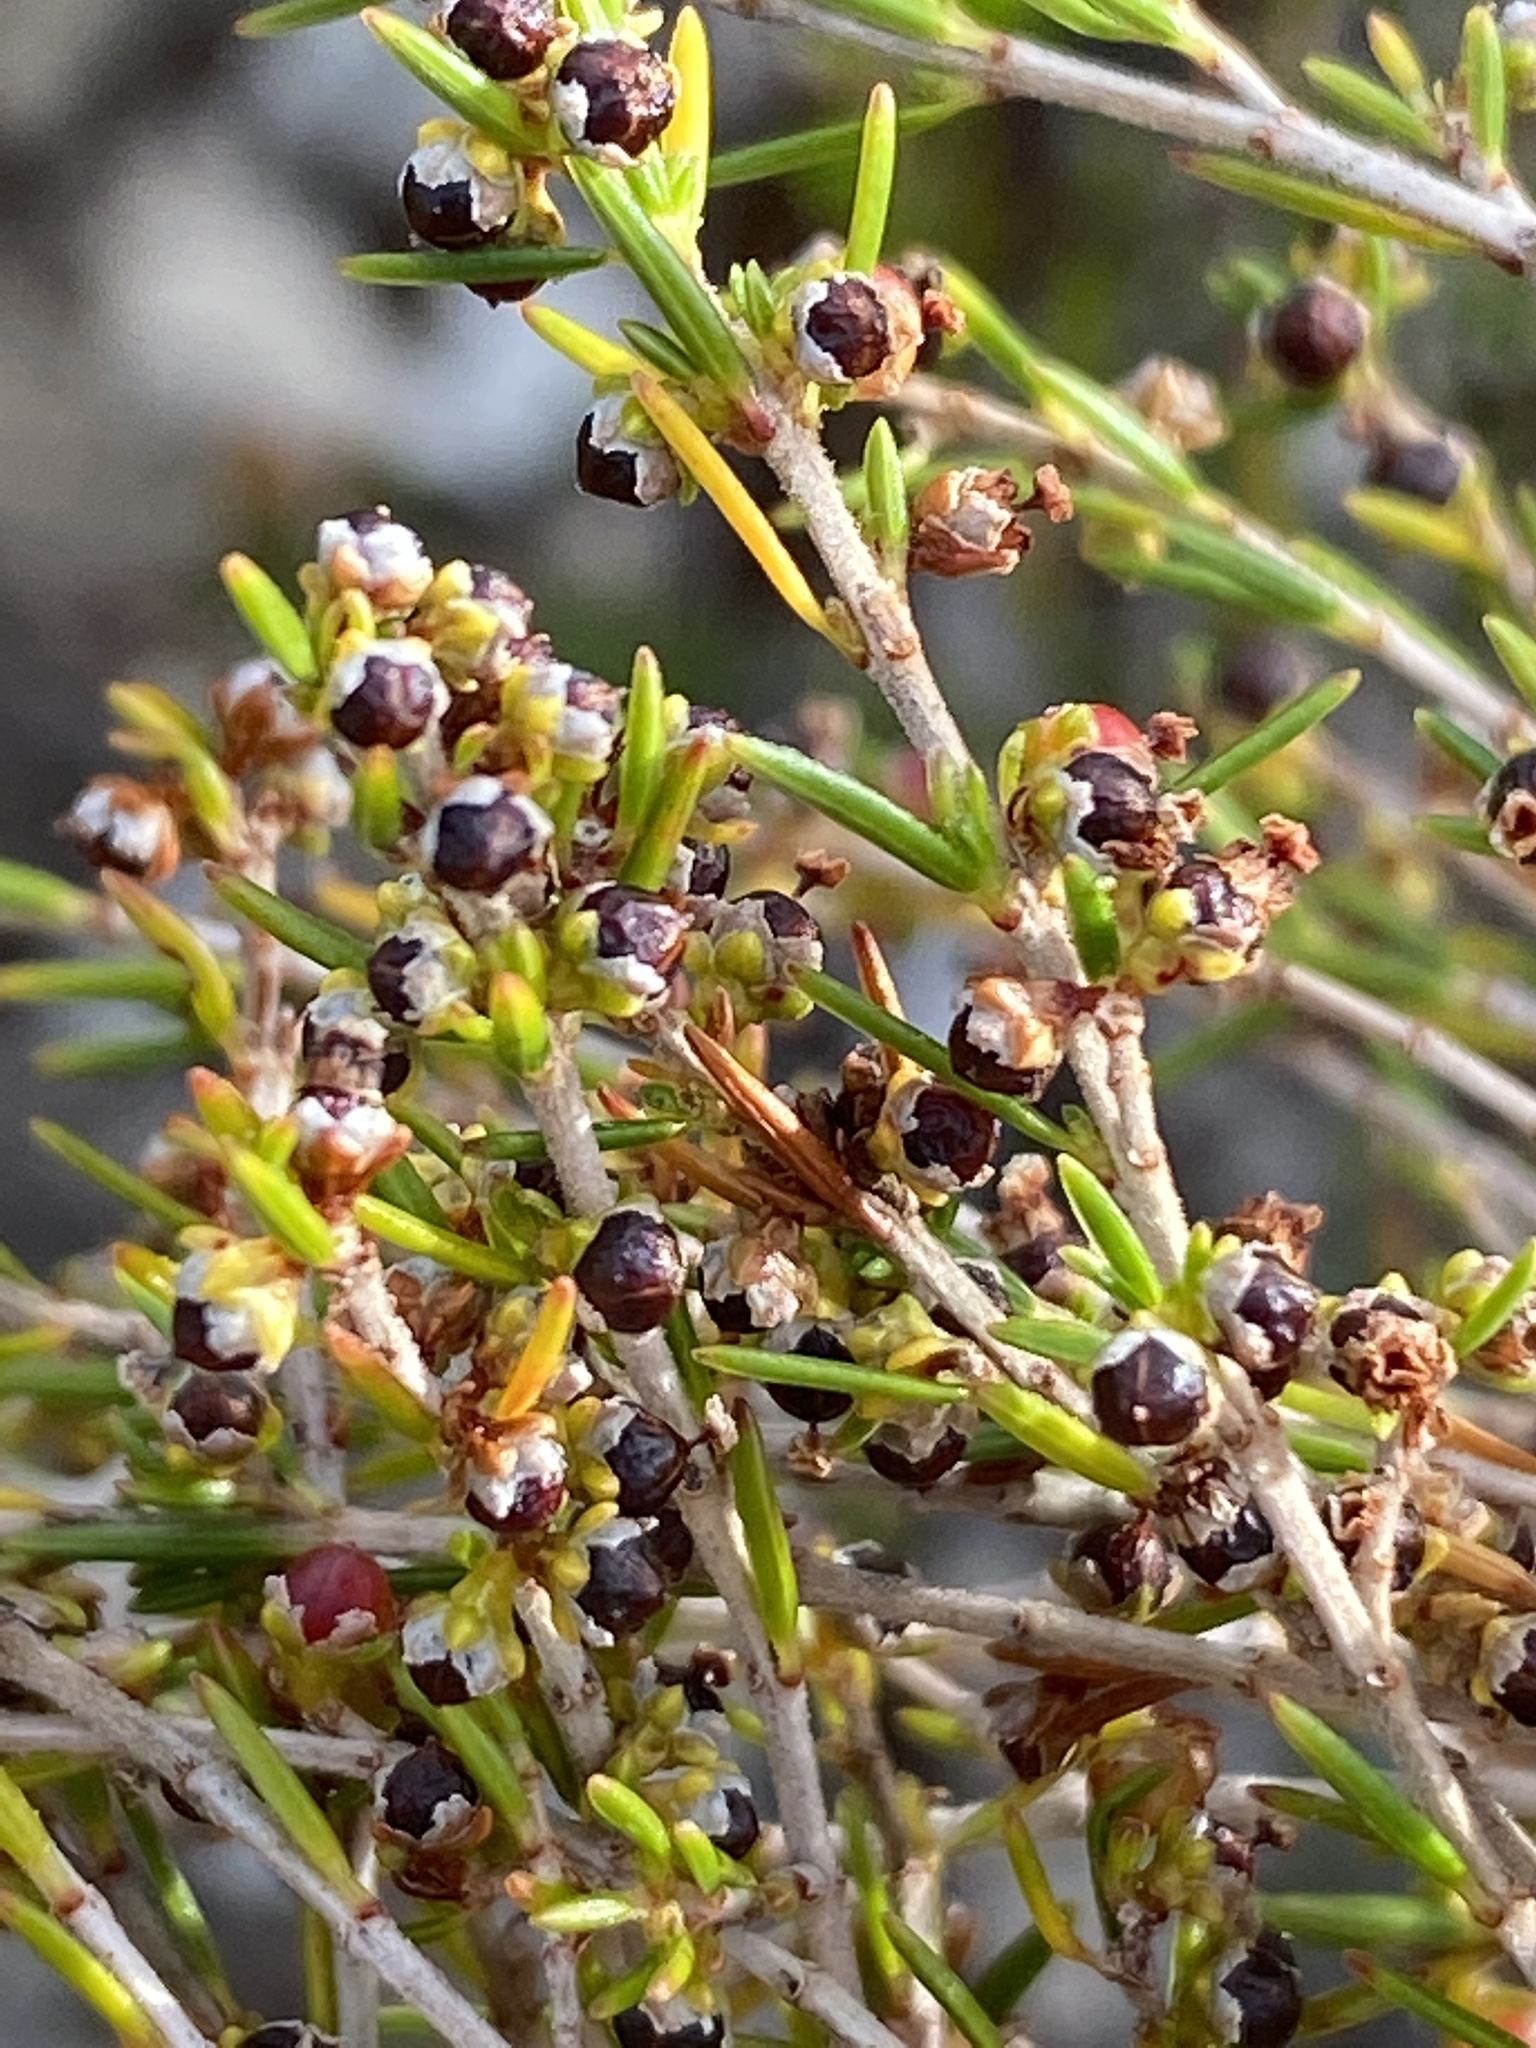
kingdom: Plantae
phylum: Tracheophyta
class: Magnoliopsida
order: Ericales
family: Ericaceae
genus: Erica
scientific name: Erica axillaris
